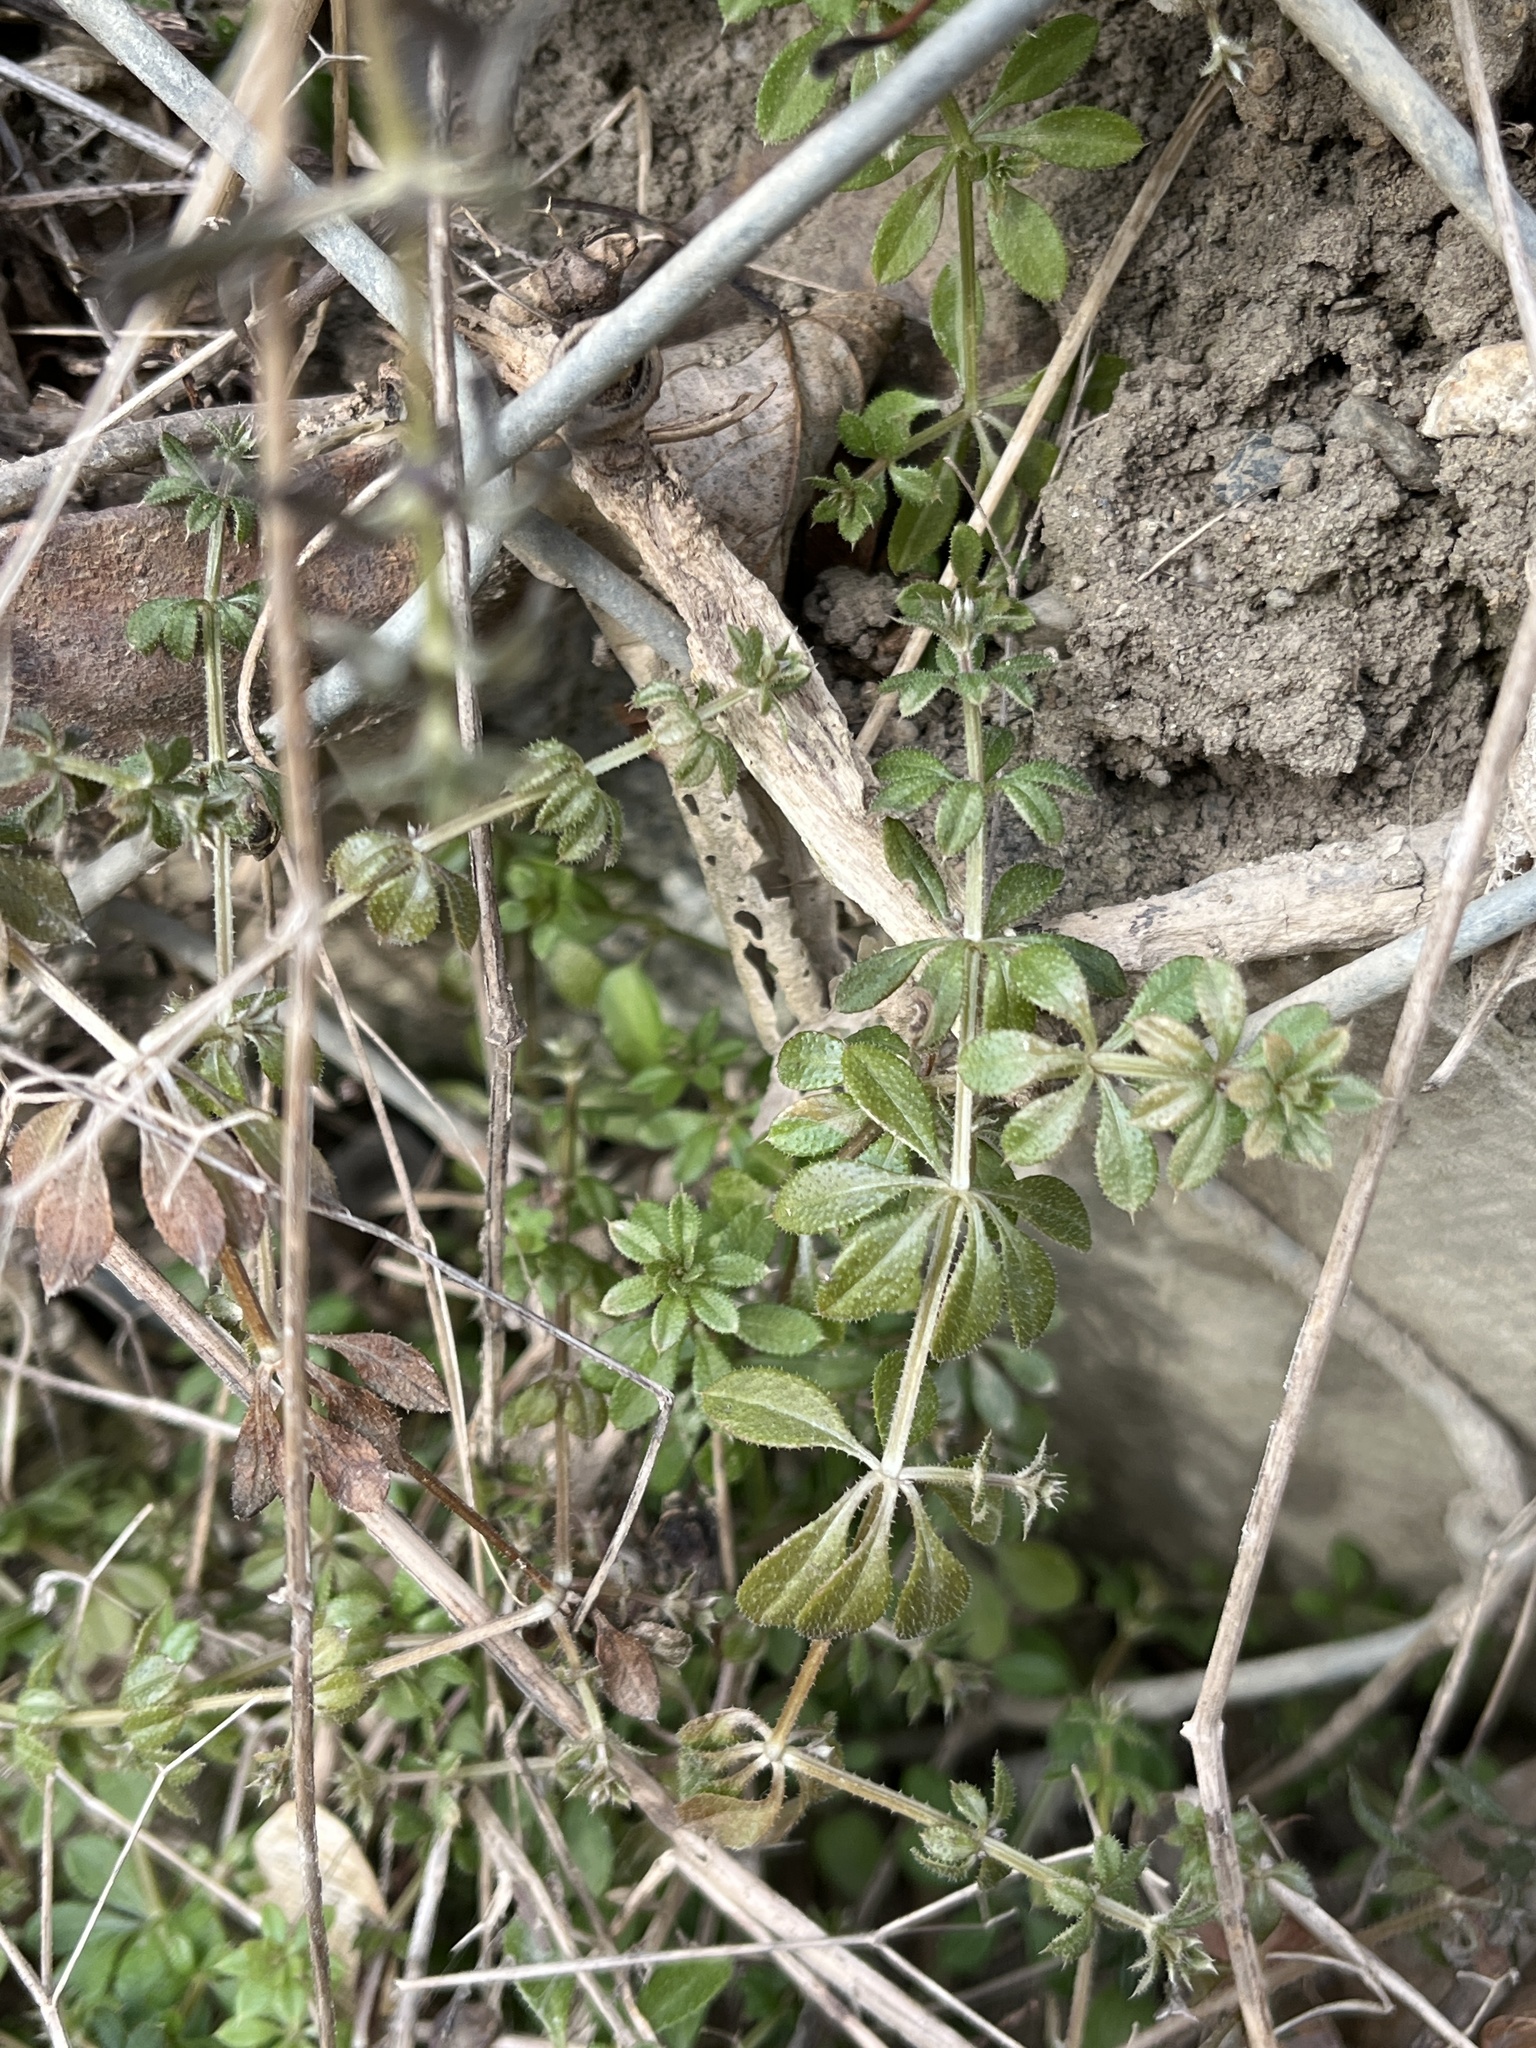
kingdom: Plantae
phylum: Tracheophyta
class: Magnoliopsida
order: Gentianales
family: Rubiaceae
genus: Galium
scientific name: Galium aparine
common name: Cleavers
